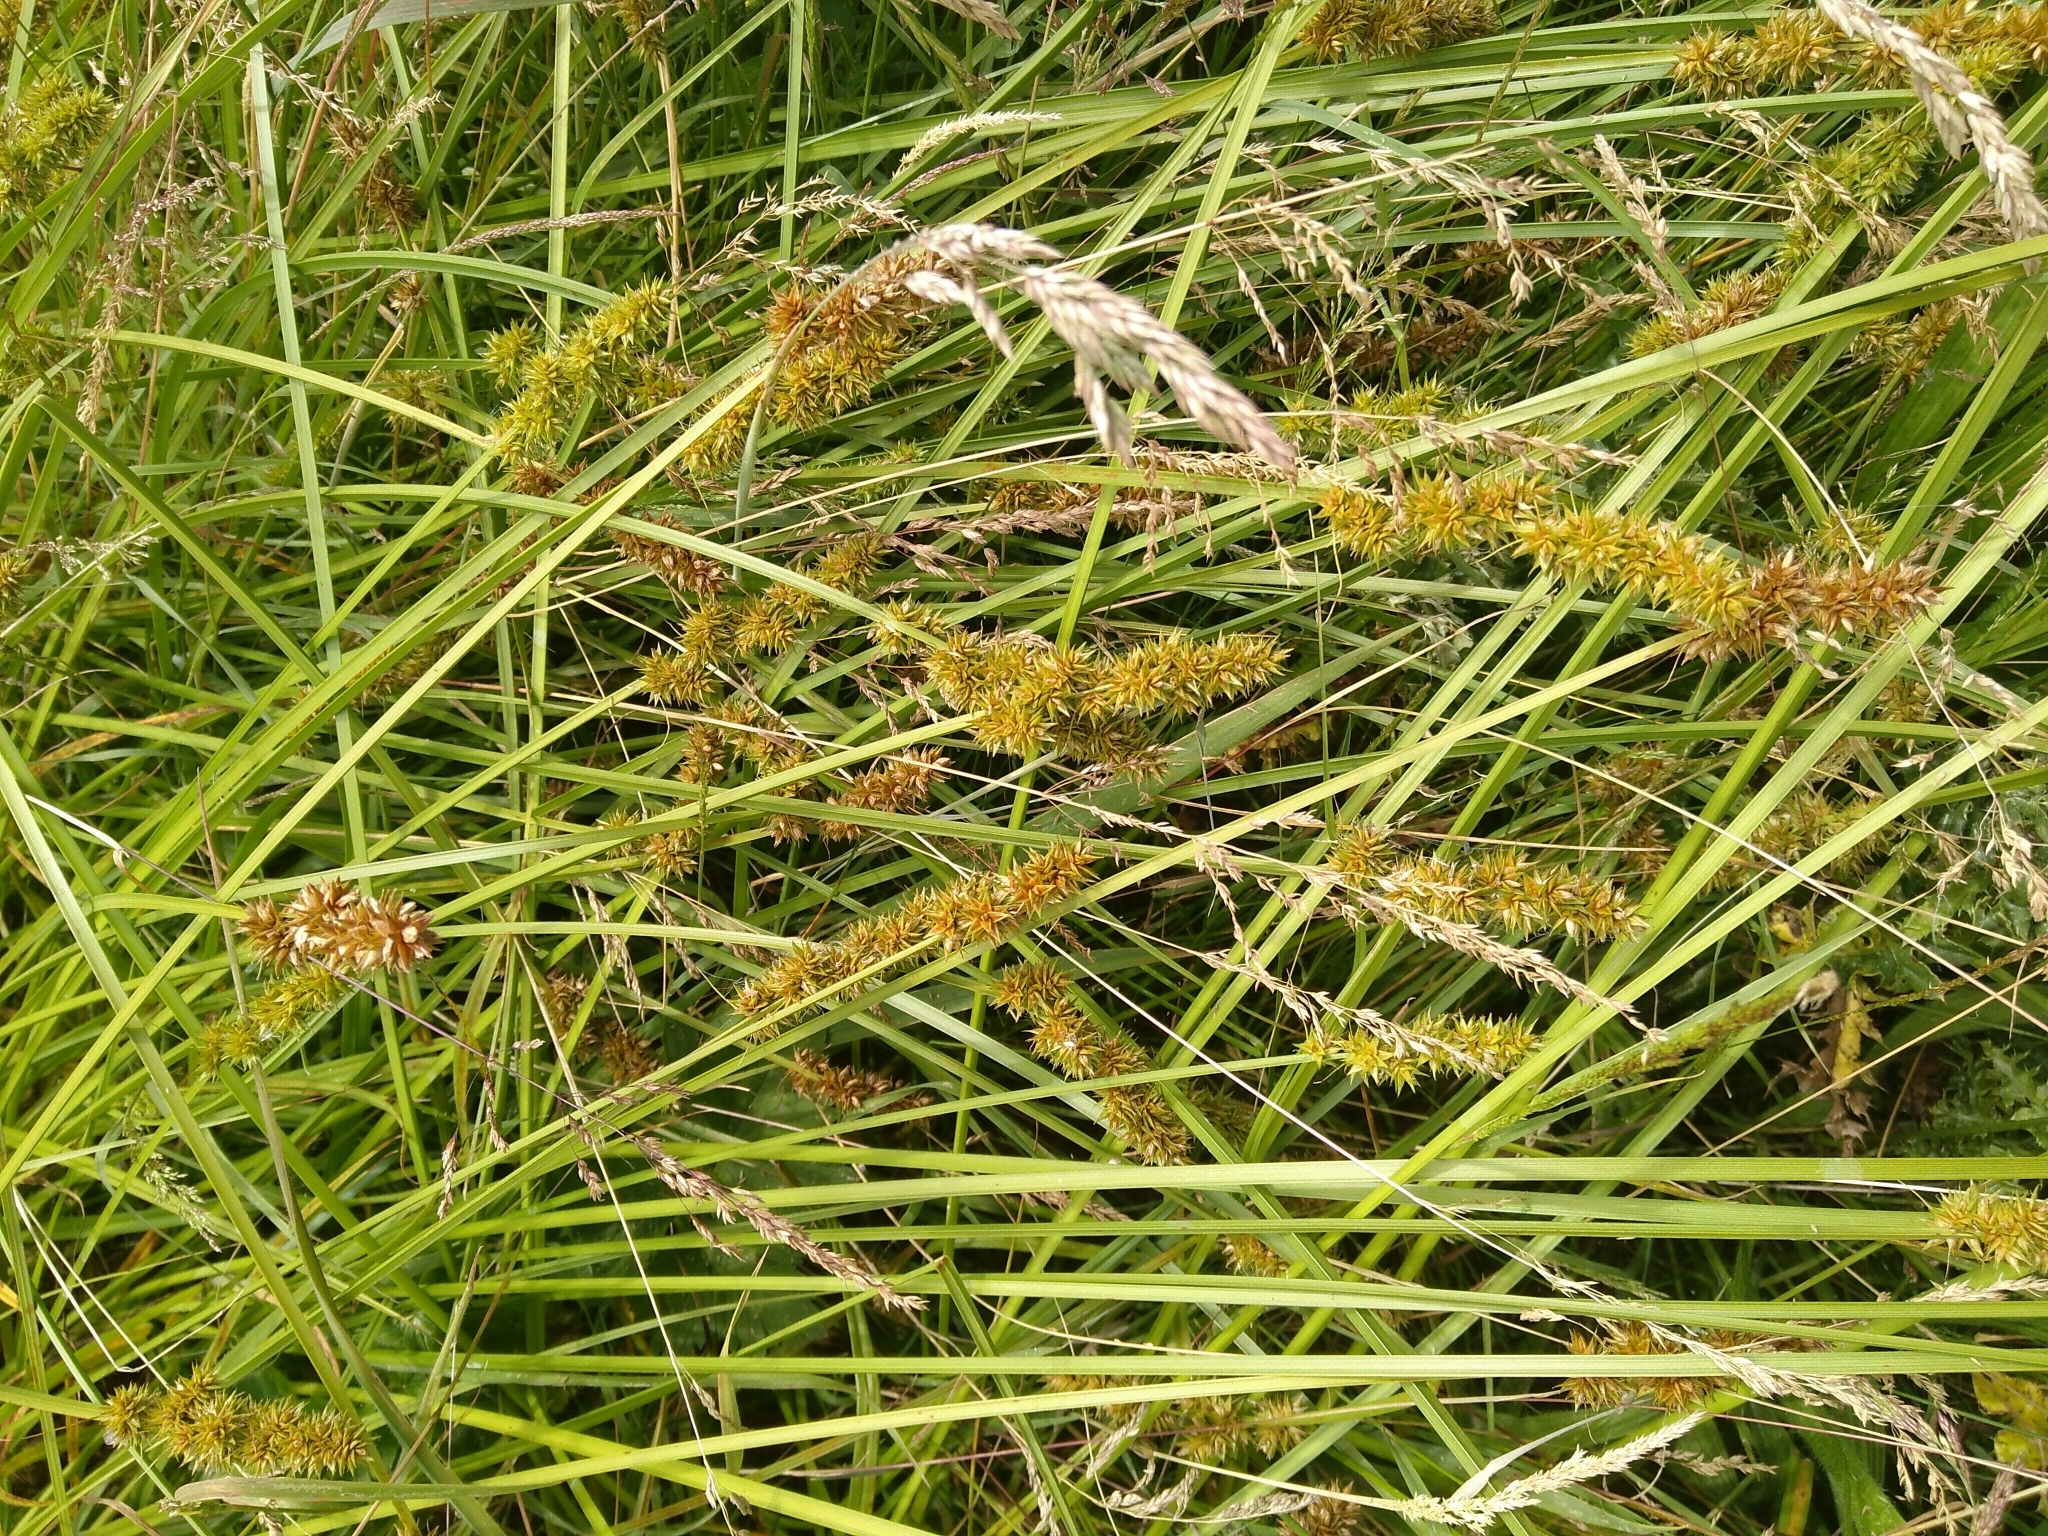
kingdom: Plantae
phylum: Tracheophyta
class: Liliopsida
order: Poales
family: Cyperaceae
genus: Carex
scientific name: Carex otrubae
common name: False fox-sedge
